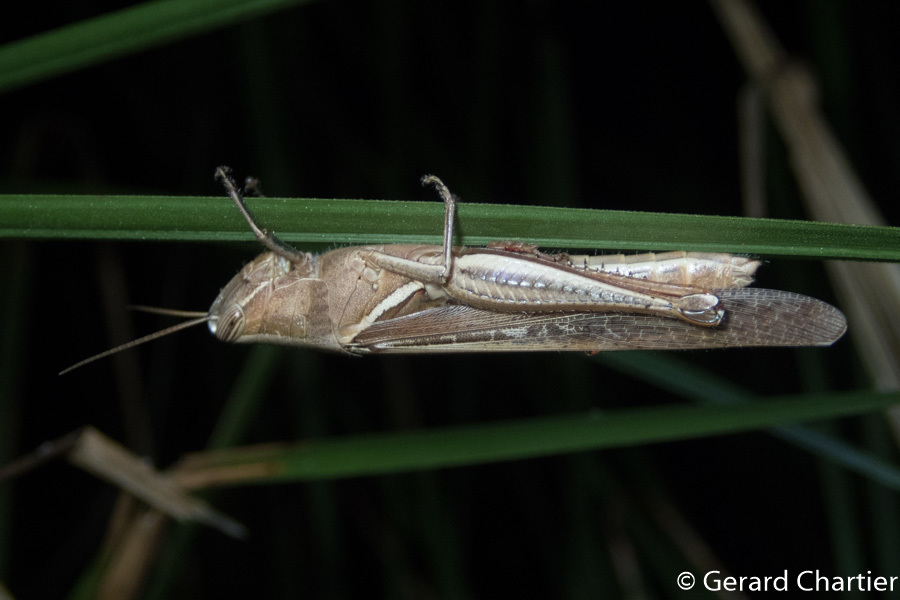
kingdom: Animalia
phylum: Arthropoda
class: Insecta
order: Orthoptera
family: Acrididae
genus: Stenocatantops
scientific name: Stenocatantops splendens
